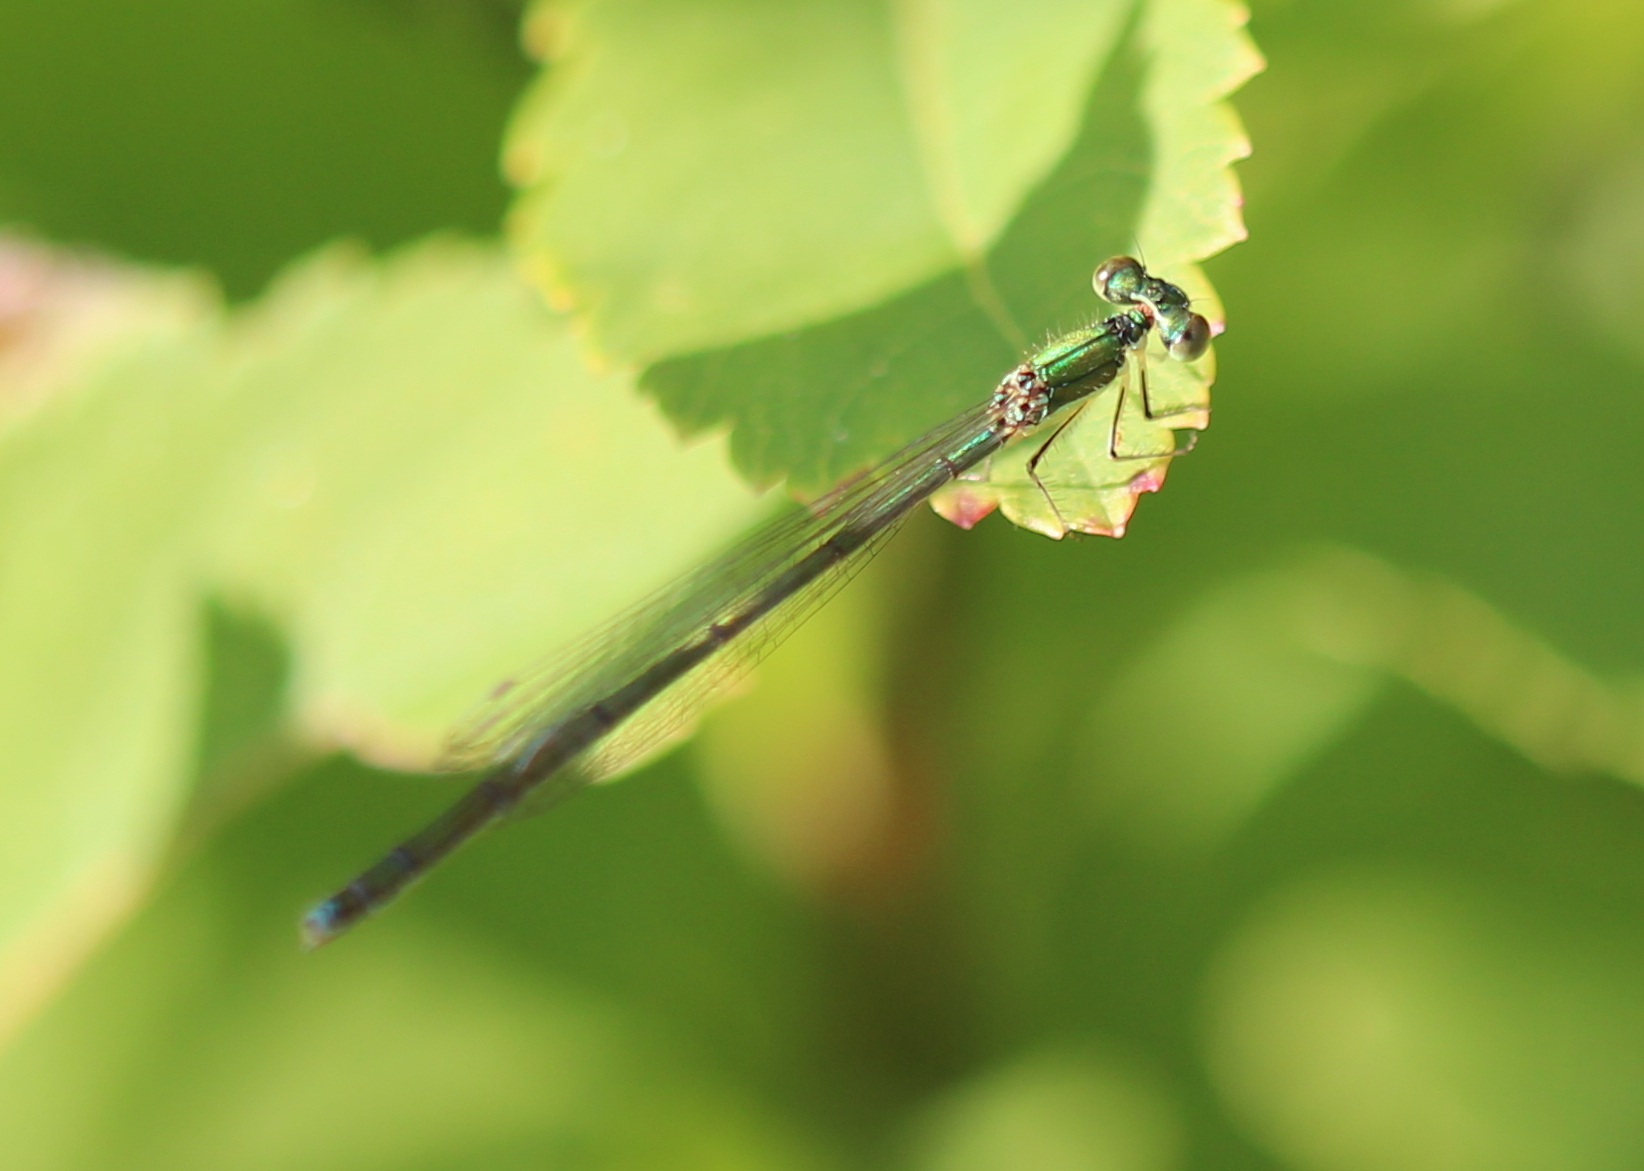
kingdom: Animalia
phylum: Arthropoda
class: Insecta
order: Odonata
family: Coenagrionidae
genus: Nehalennia
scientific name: Nehalennia irene
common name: Sedge sprite
